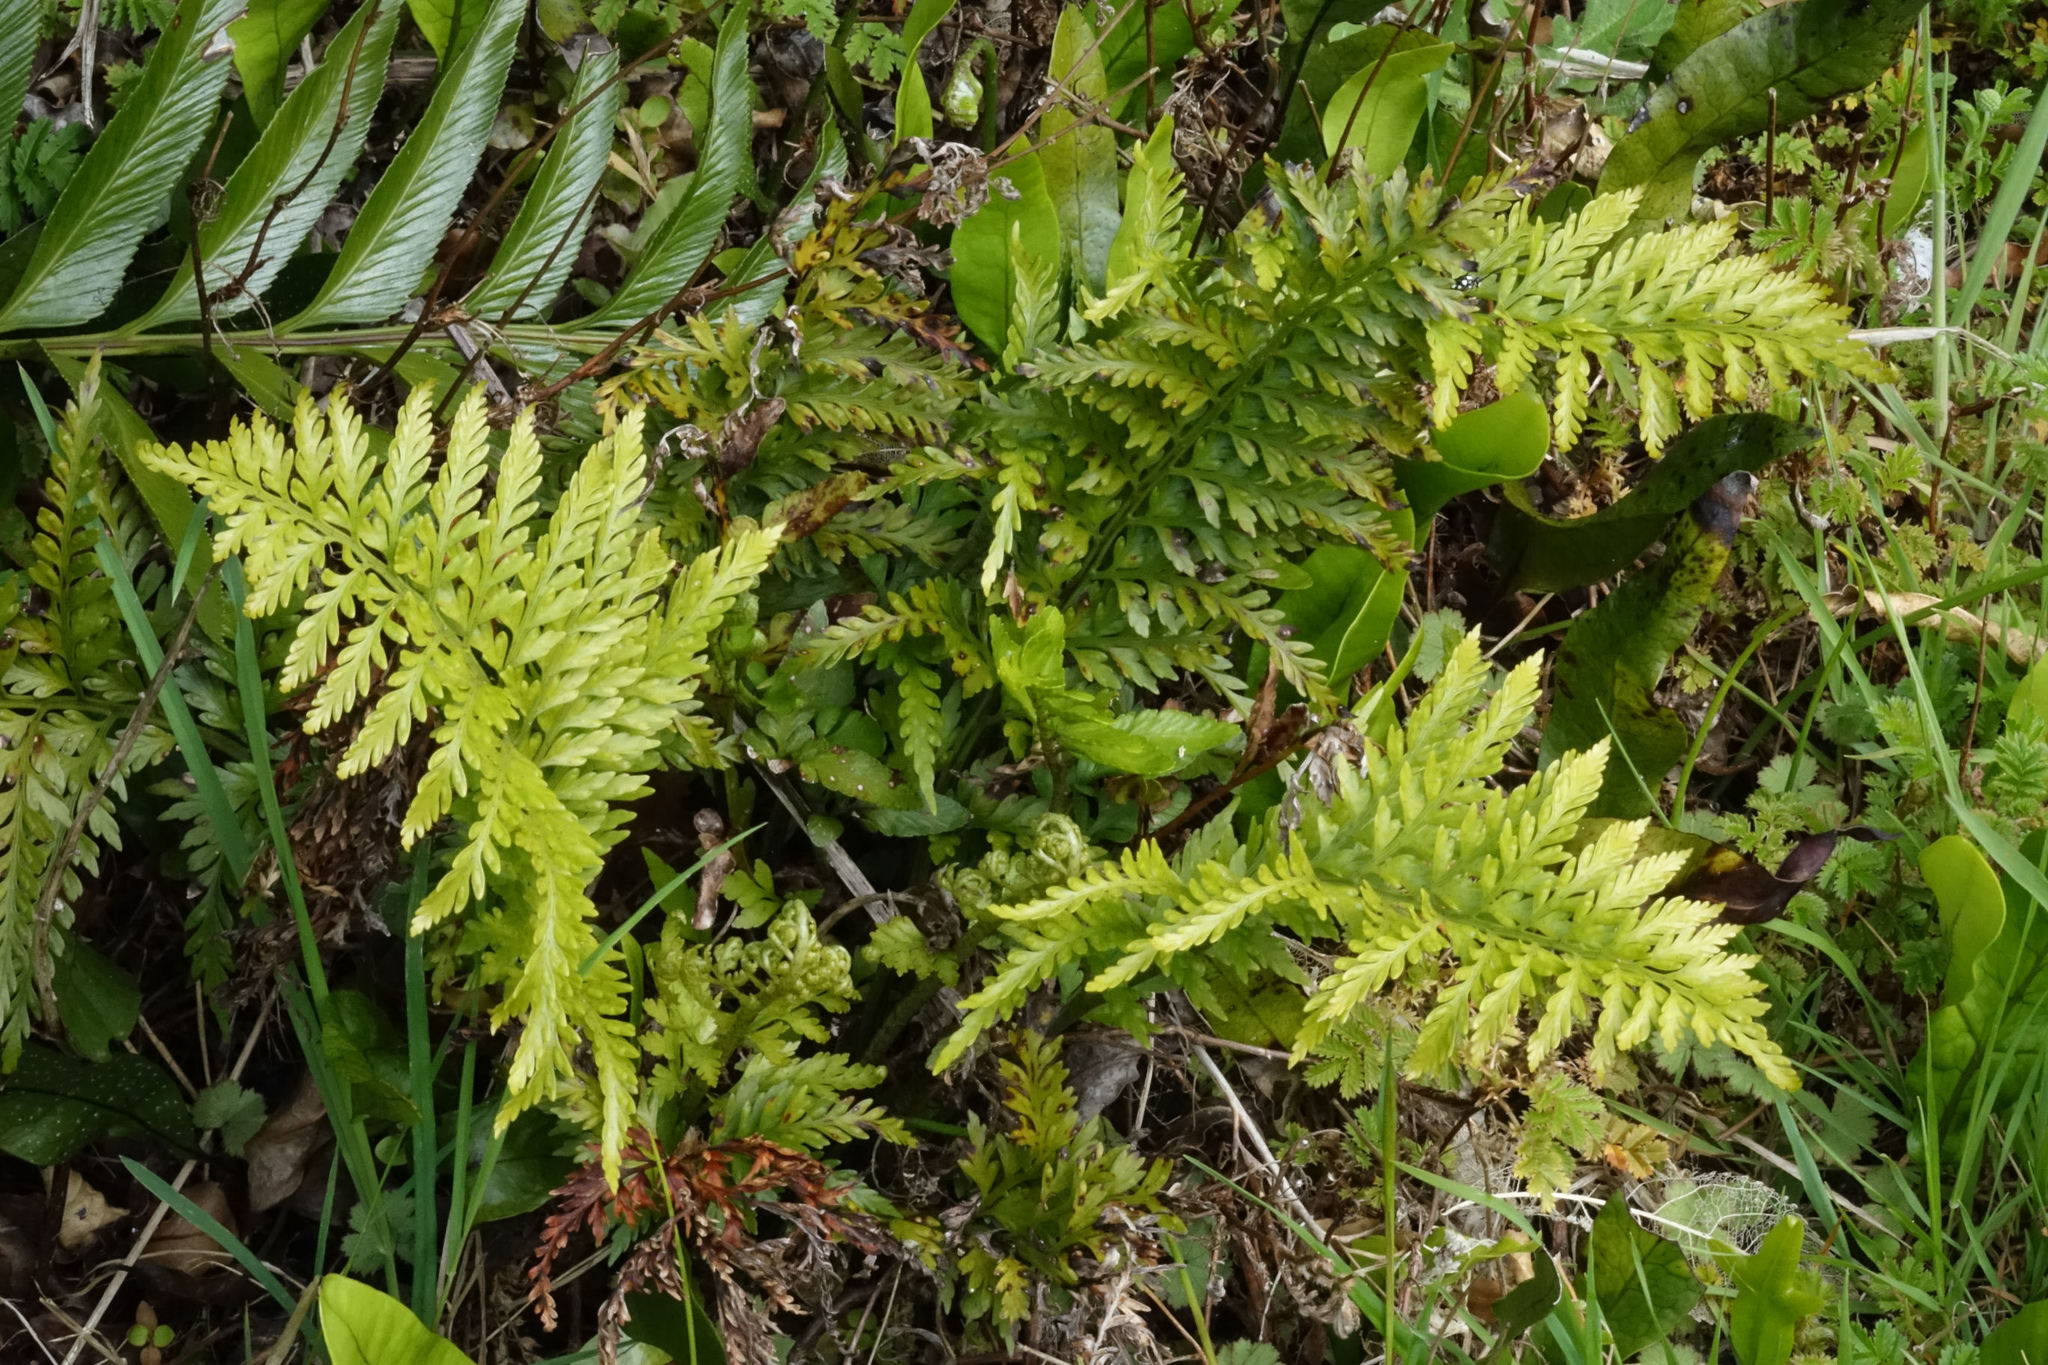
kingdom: Plantae
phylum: Tracheophyta
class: Polypodiopsida
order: Polypodiales
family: Aspleniaceae
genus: Asplenium
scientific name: Asplenium appendiculatum
